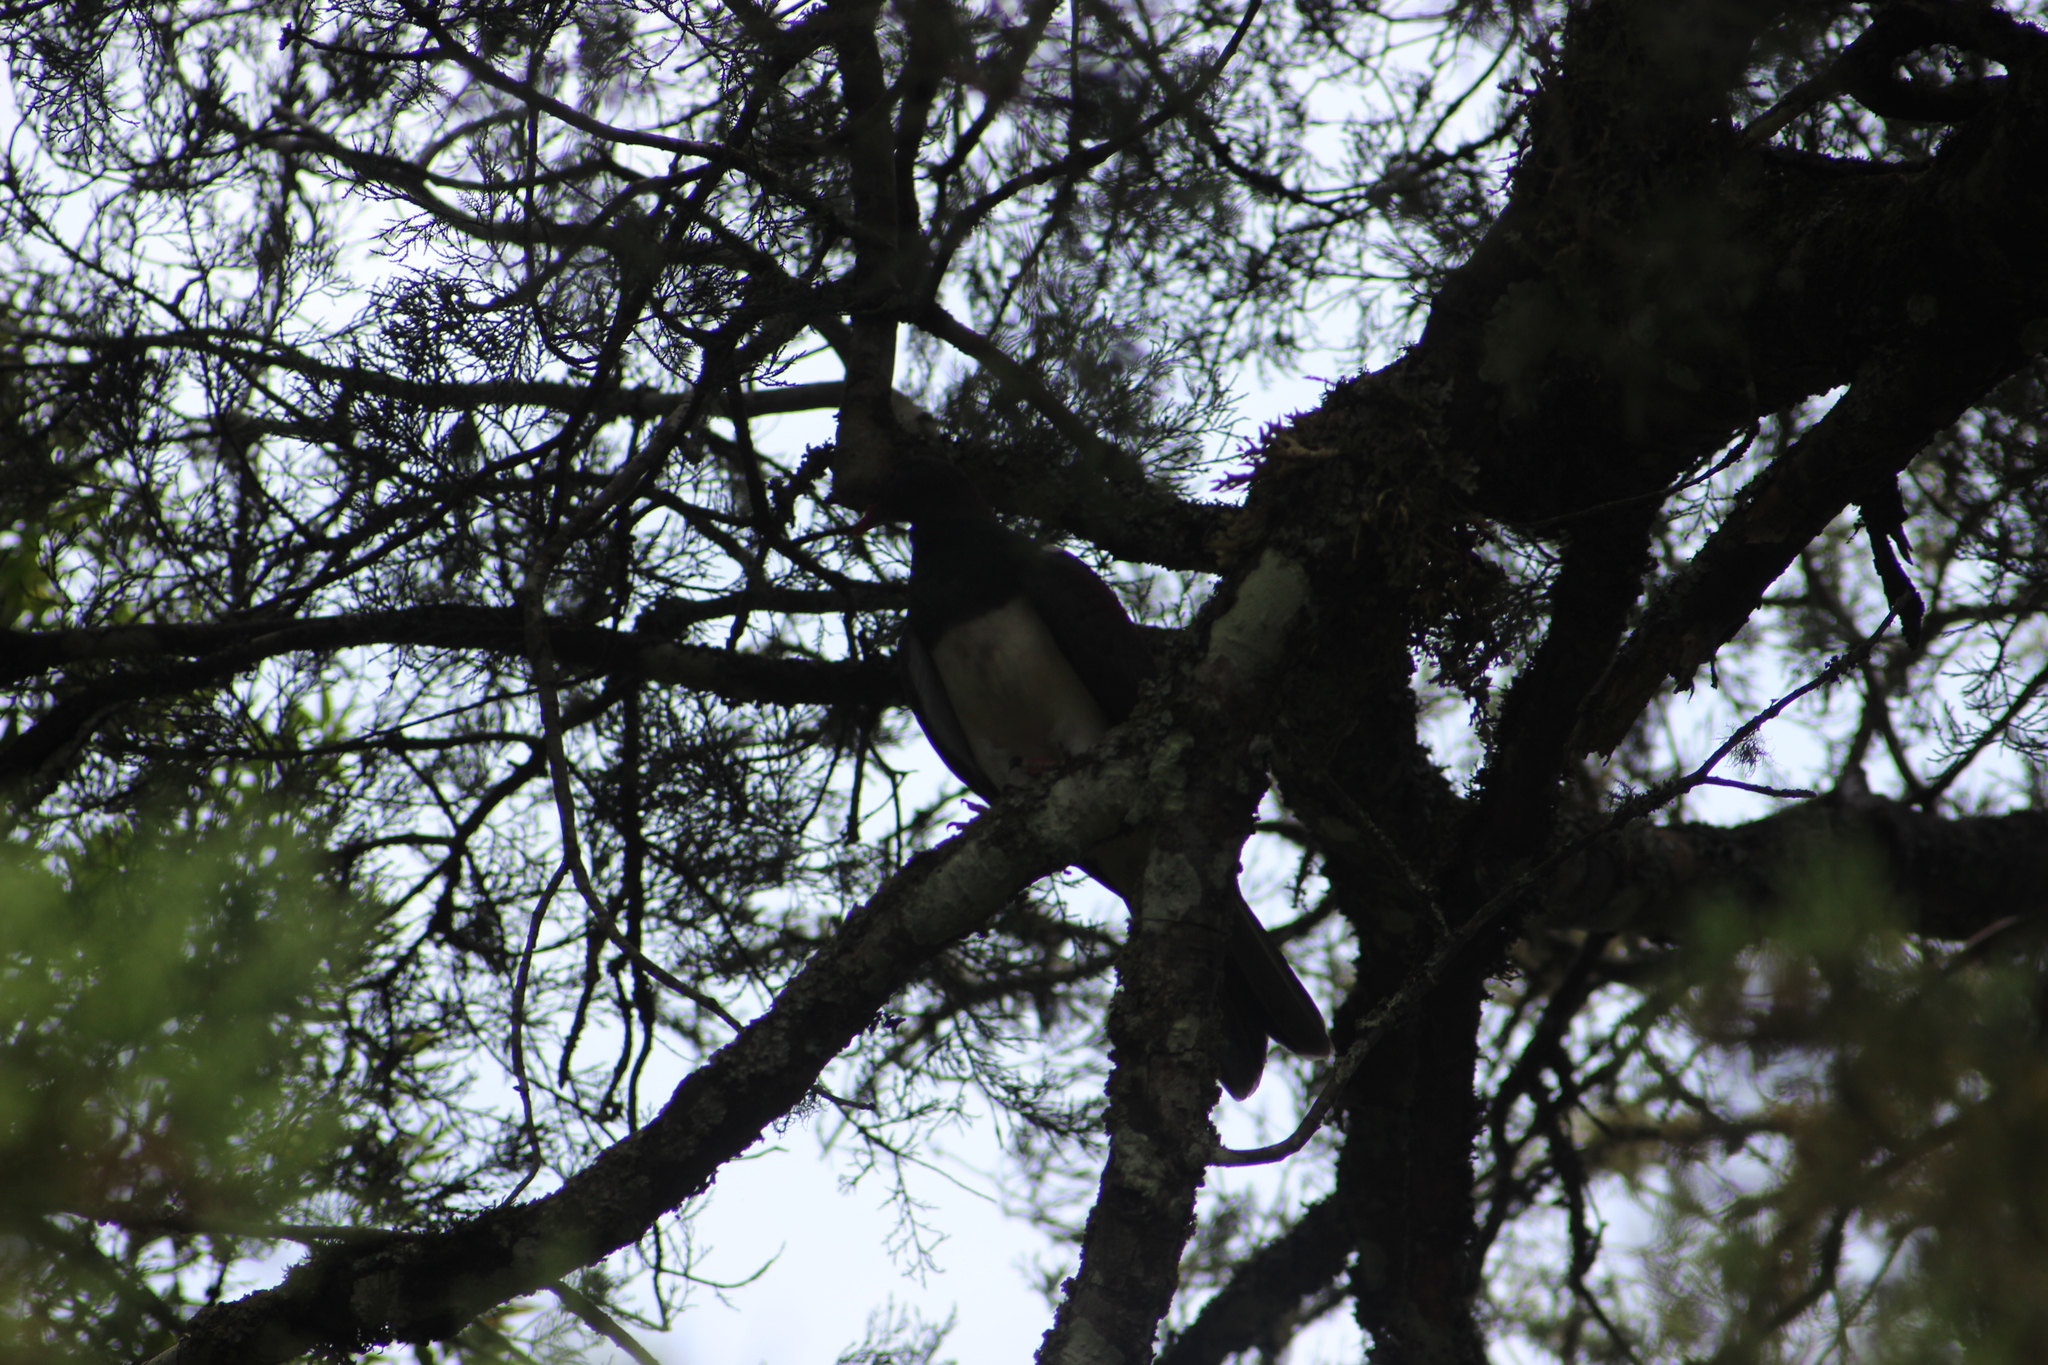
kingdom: Animalia
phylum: Chordata
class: Aves
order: Columbiformes
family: Columbidae
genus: Hemiphaga
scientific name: Hemiphaga novaeseelandiae
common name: New zealand pigeon
